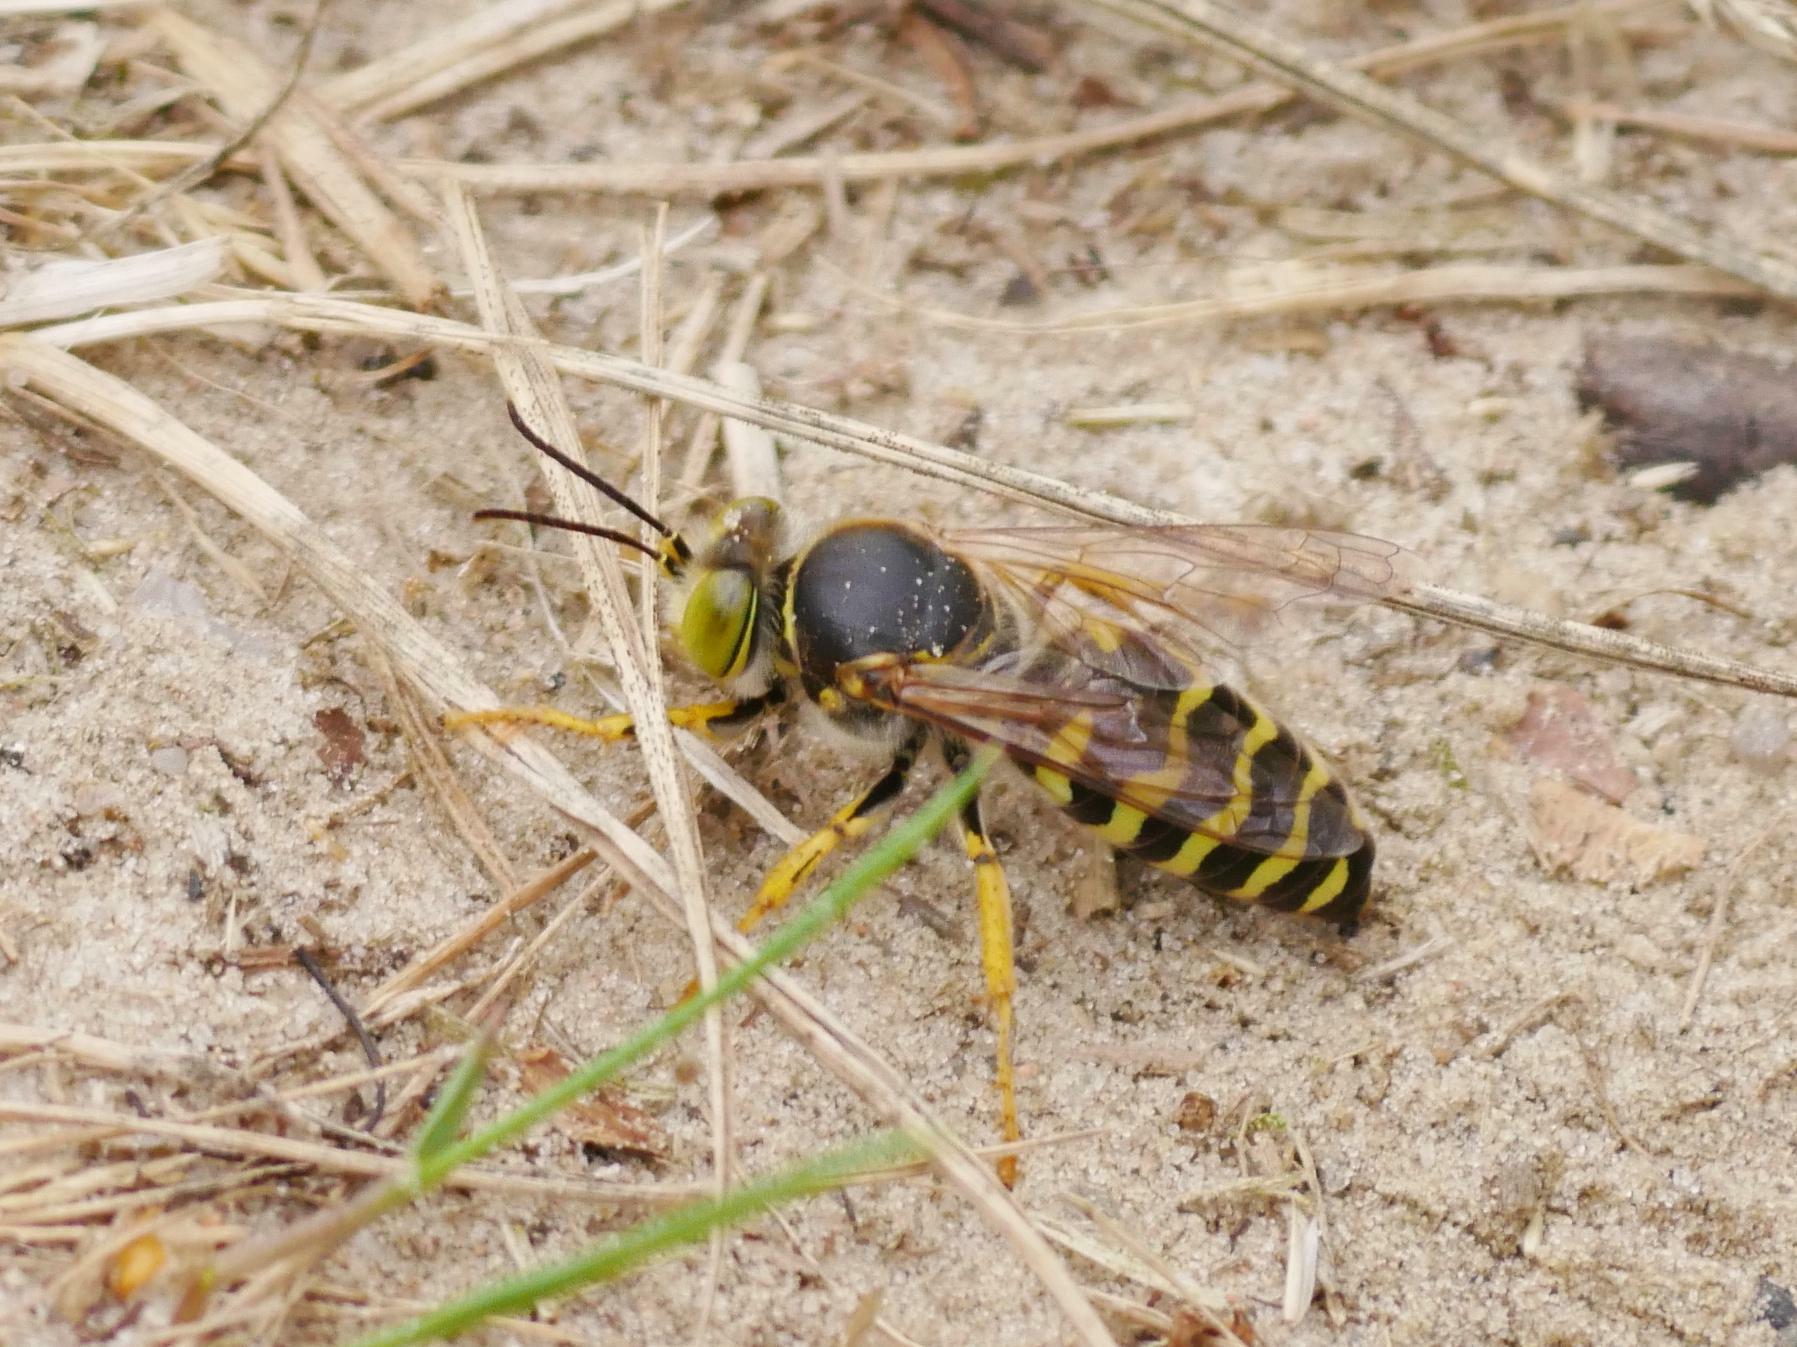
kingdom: Animalia
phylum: Arthropoda
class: Insecta
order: Hymenoptera
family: Crabronidae
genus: Bembix
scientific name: Bembix rostrata
